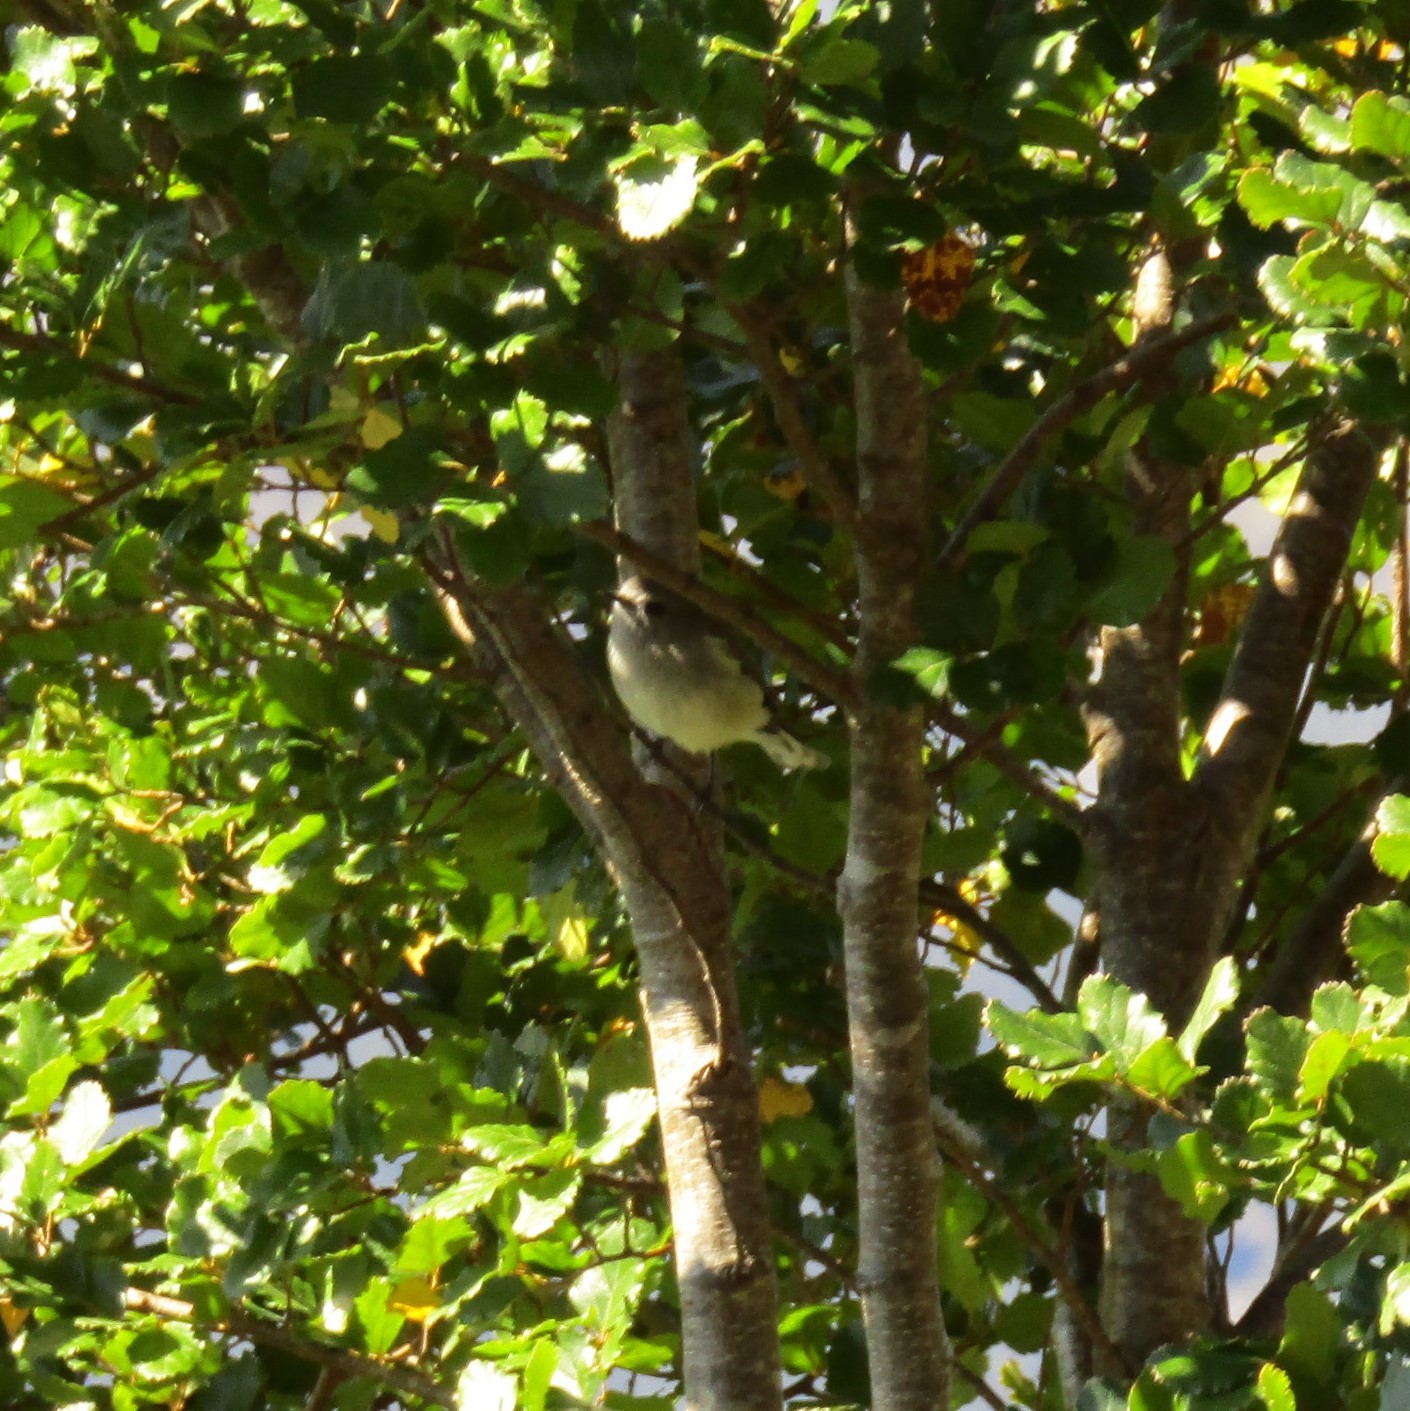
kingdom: Animalia
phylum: Chordata
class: Aves
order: Passeriformes
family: Acanthizidae
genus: Gerygone
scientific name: Gerygone igata
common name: Grey gerygone
